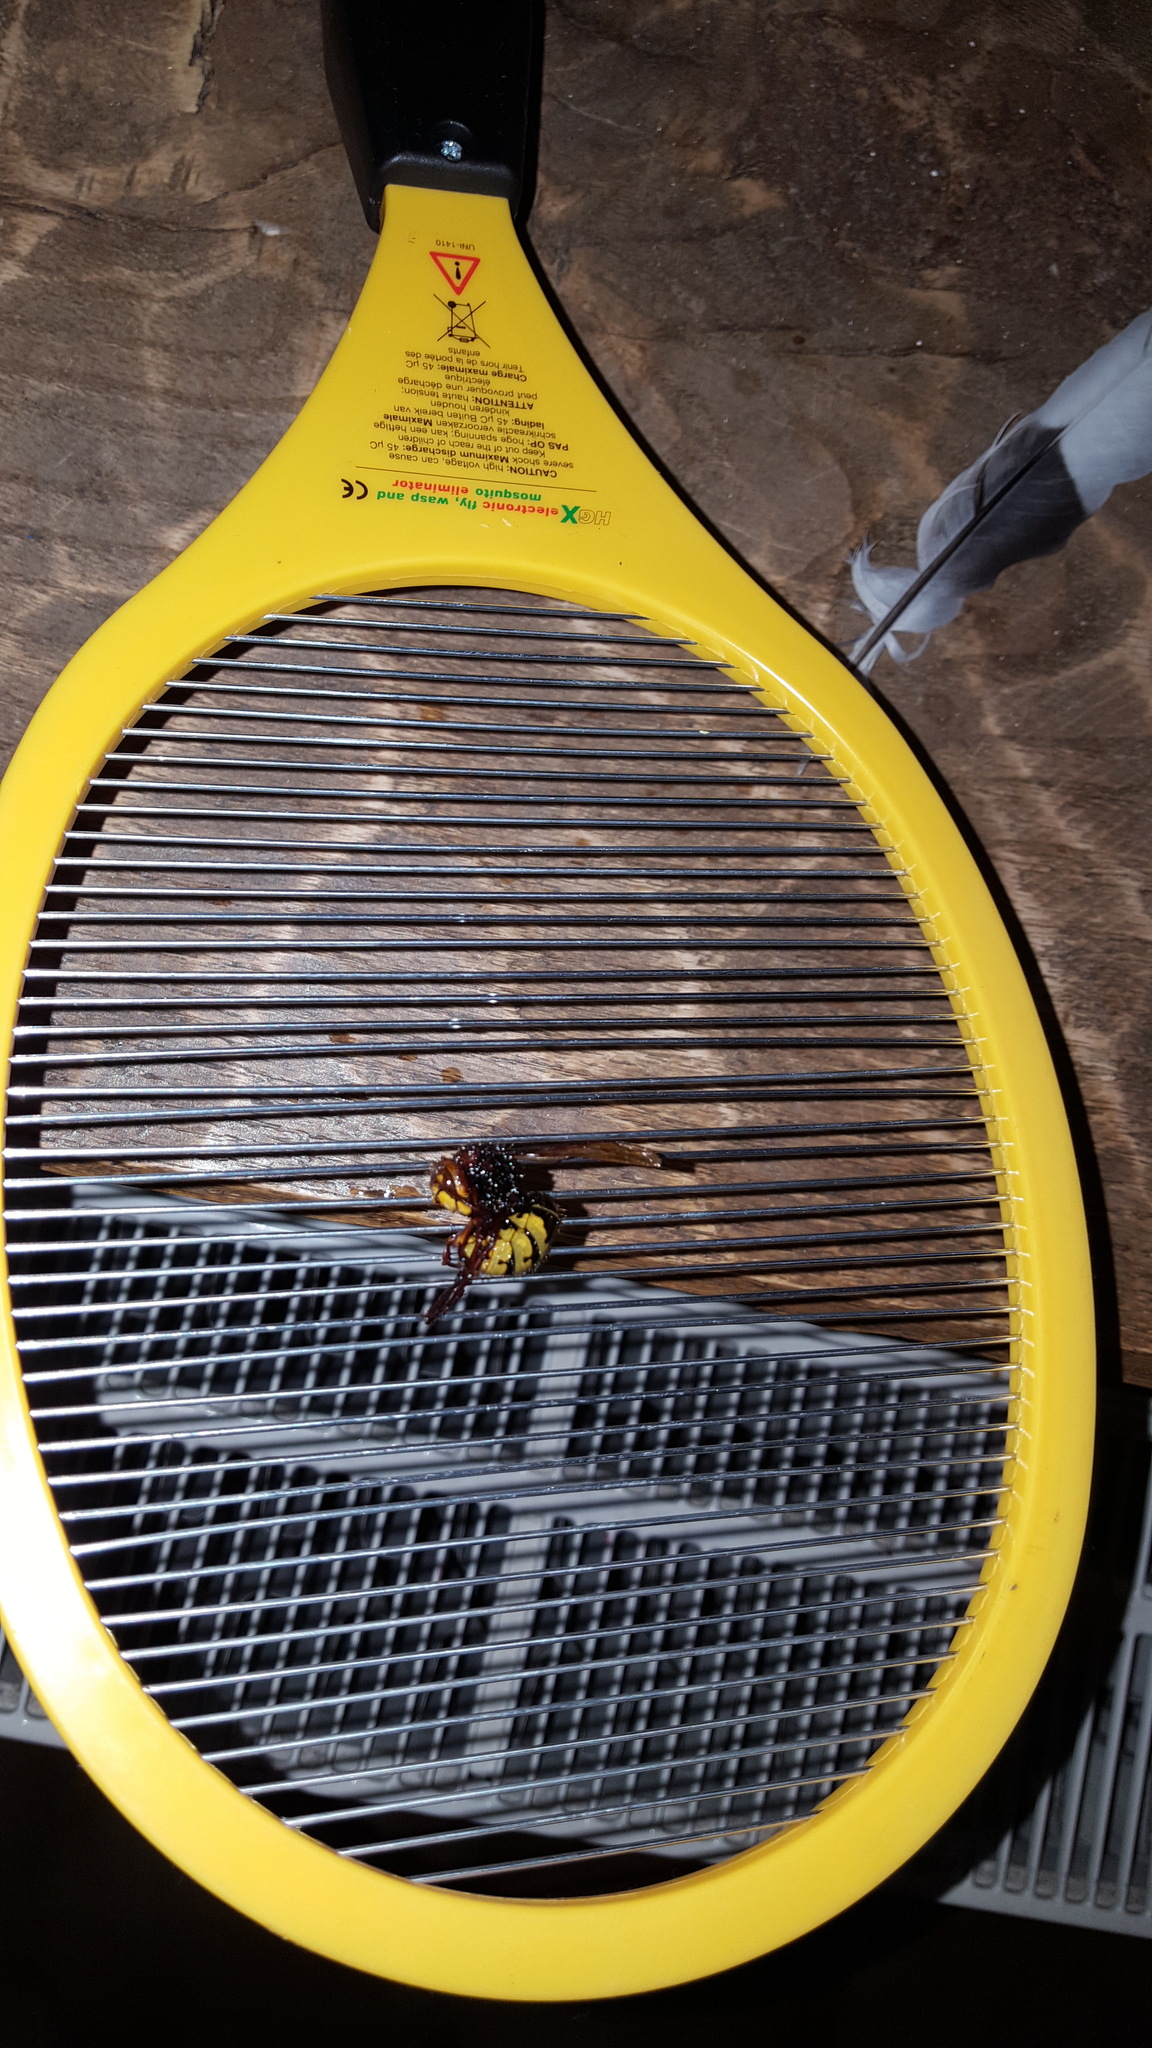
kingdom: Animalia
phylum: Arthropoda
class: Insecta
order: Hymenoptera
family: Vespidae
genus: Vespa
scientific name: Vespa crabro
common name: Hornet
